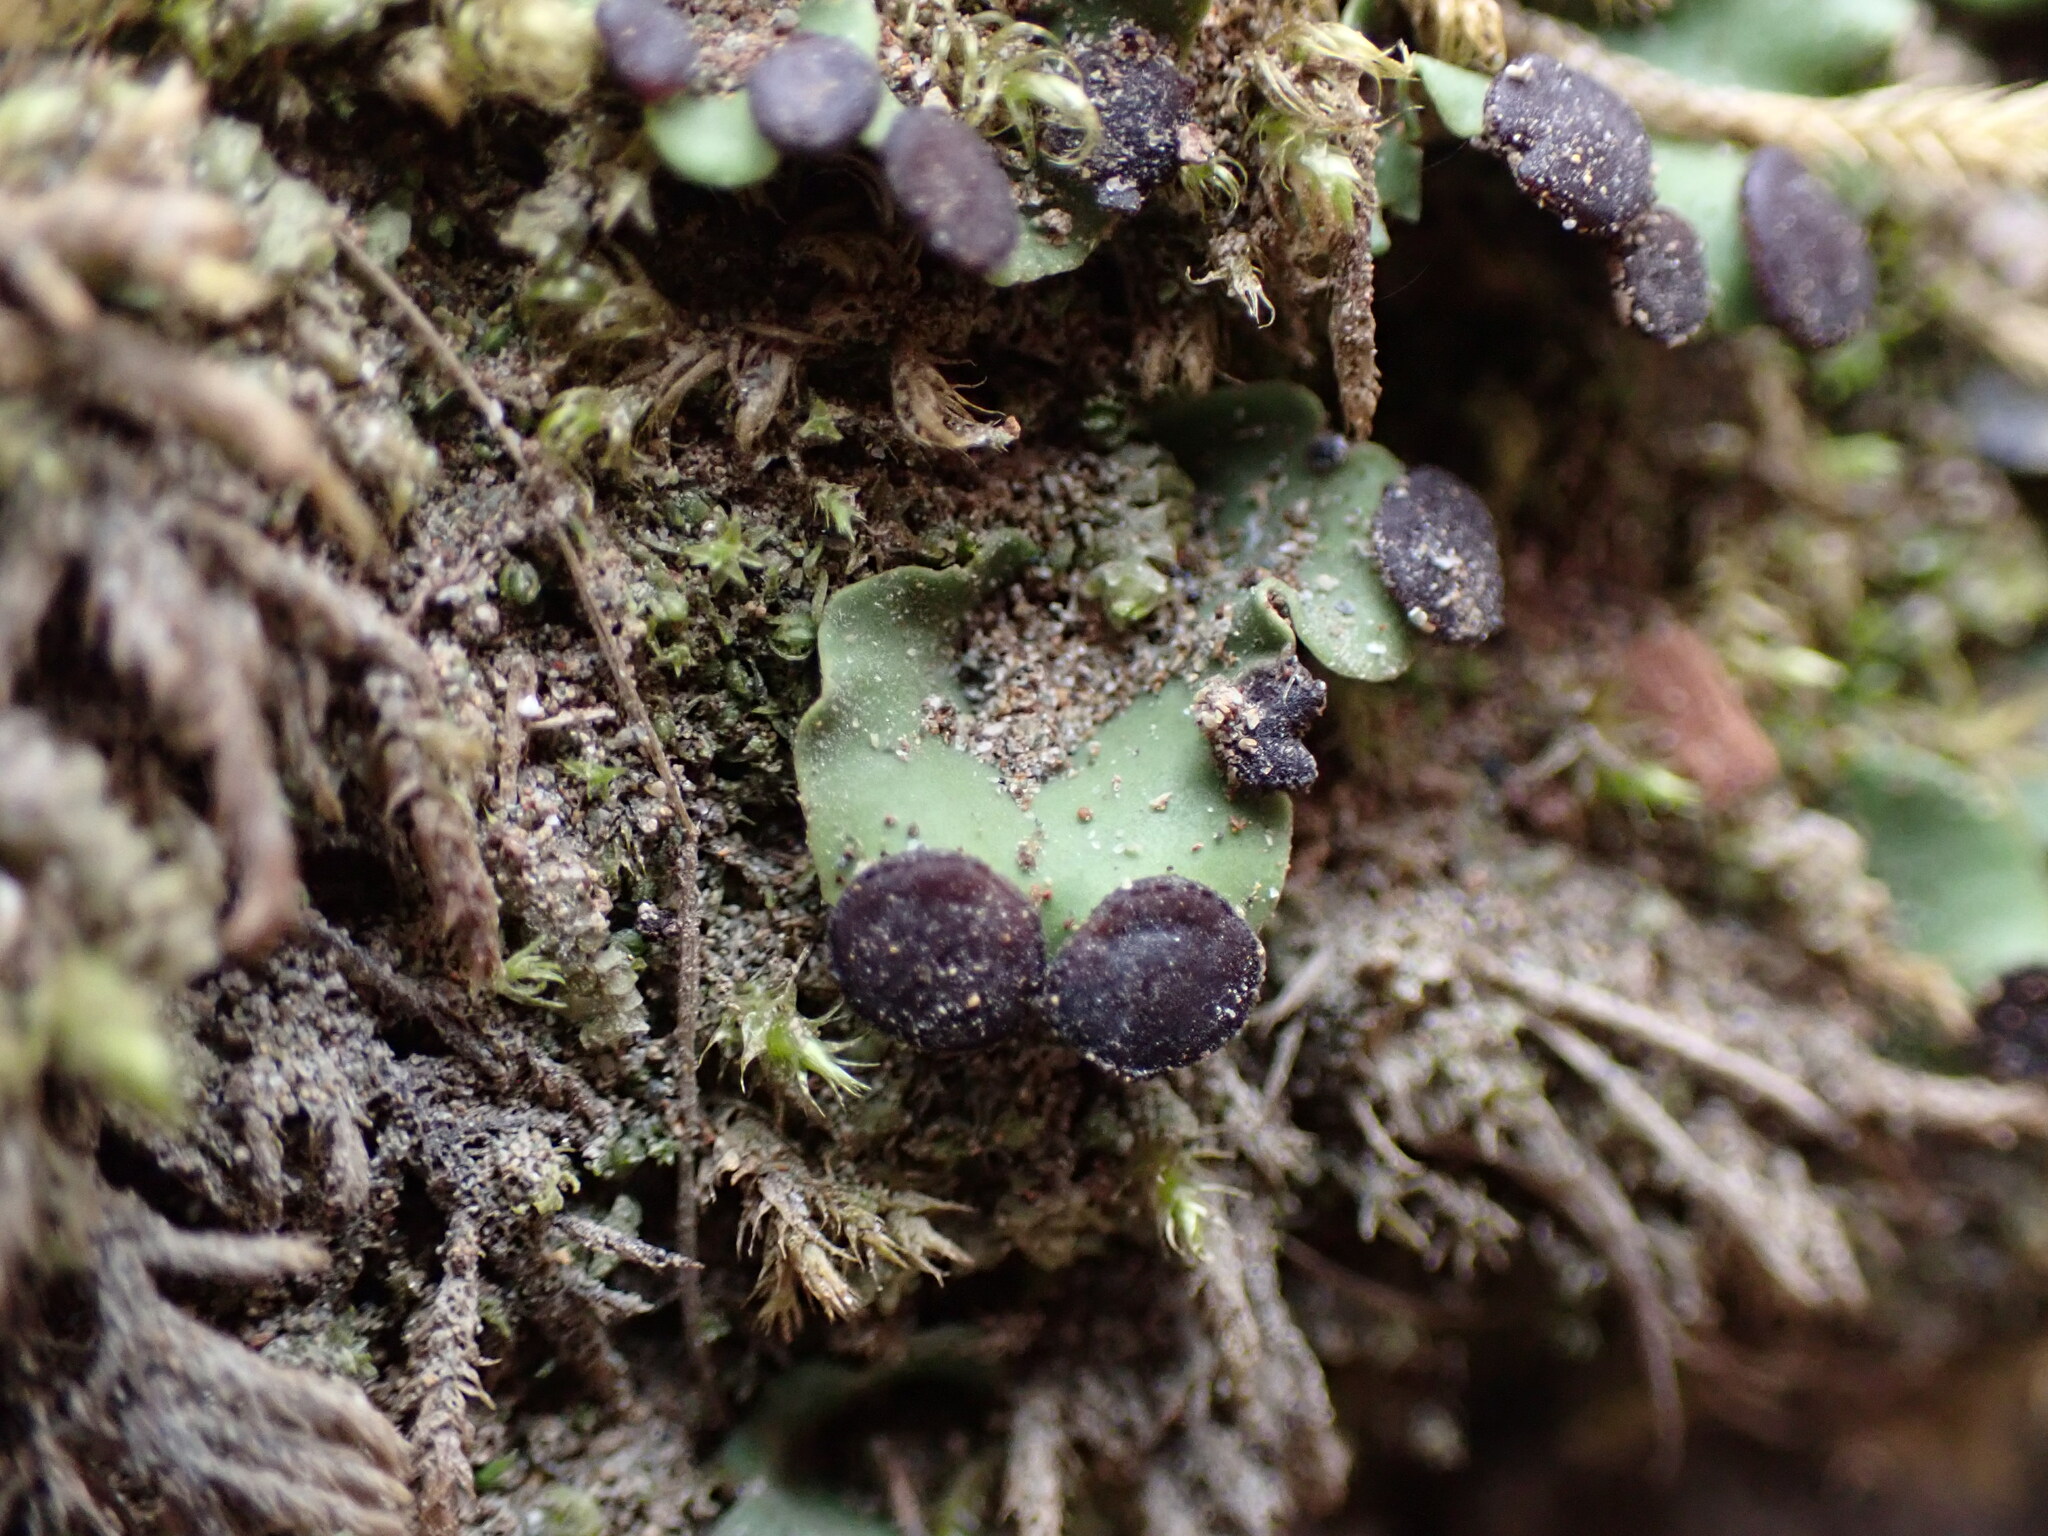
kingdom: Fungi
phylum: Ascomycota
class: Lecanoromycetes
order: Peltigerales
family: Peltigeraceae
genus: Peltigera
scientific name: Peltigera venosa
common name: Pixie gowns lichen
